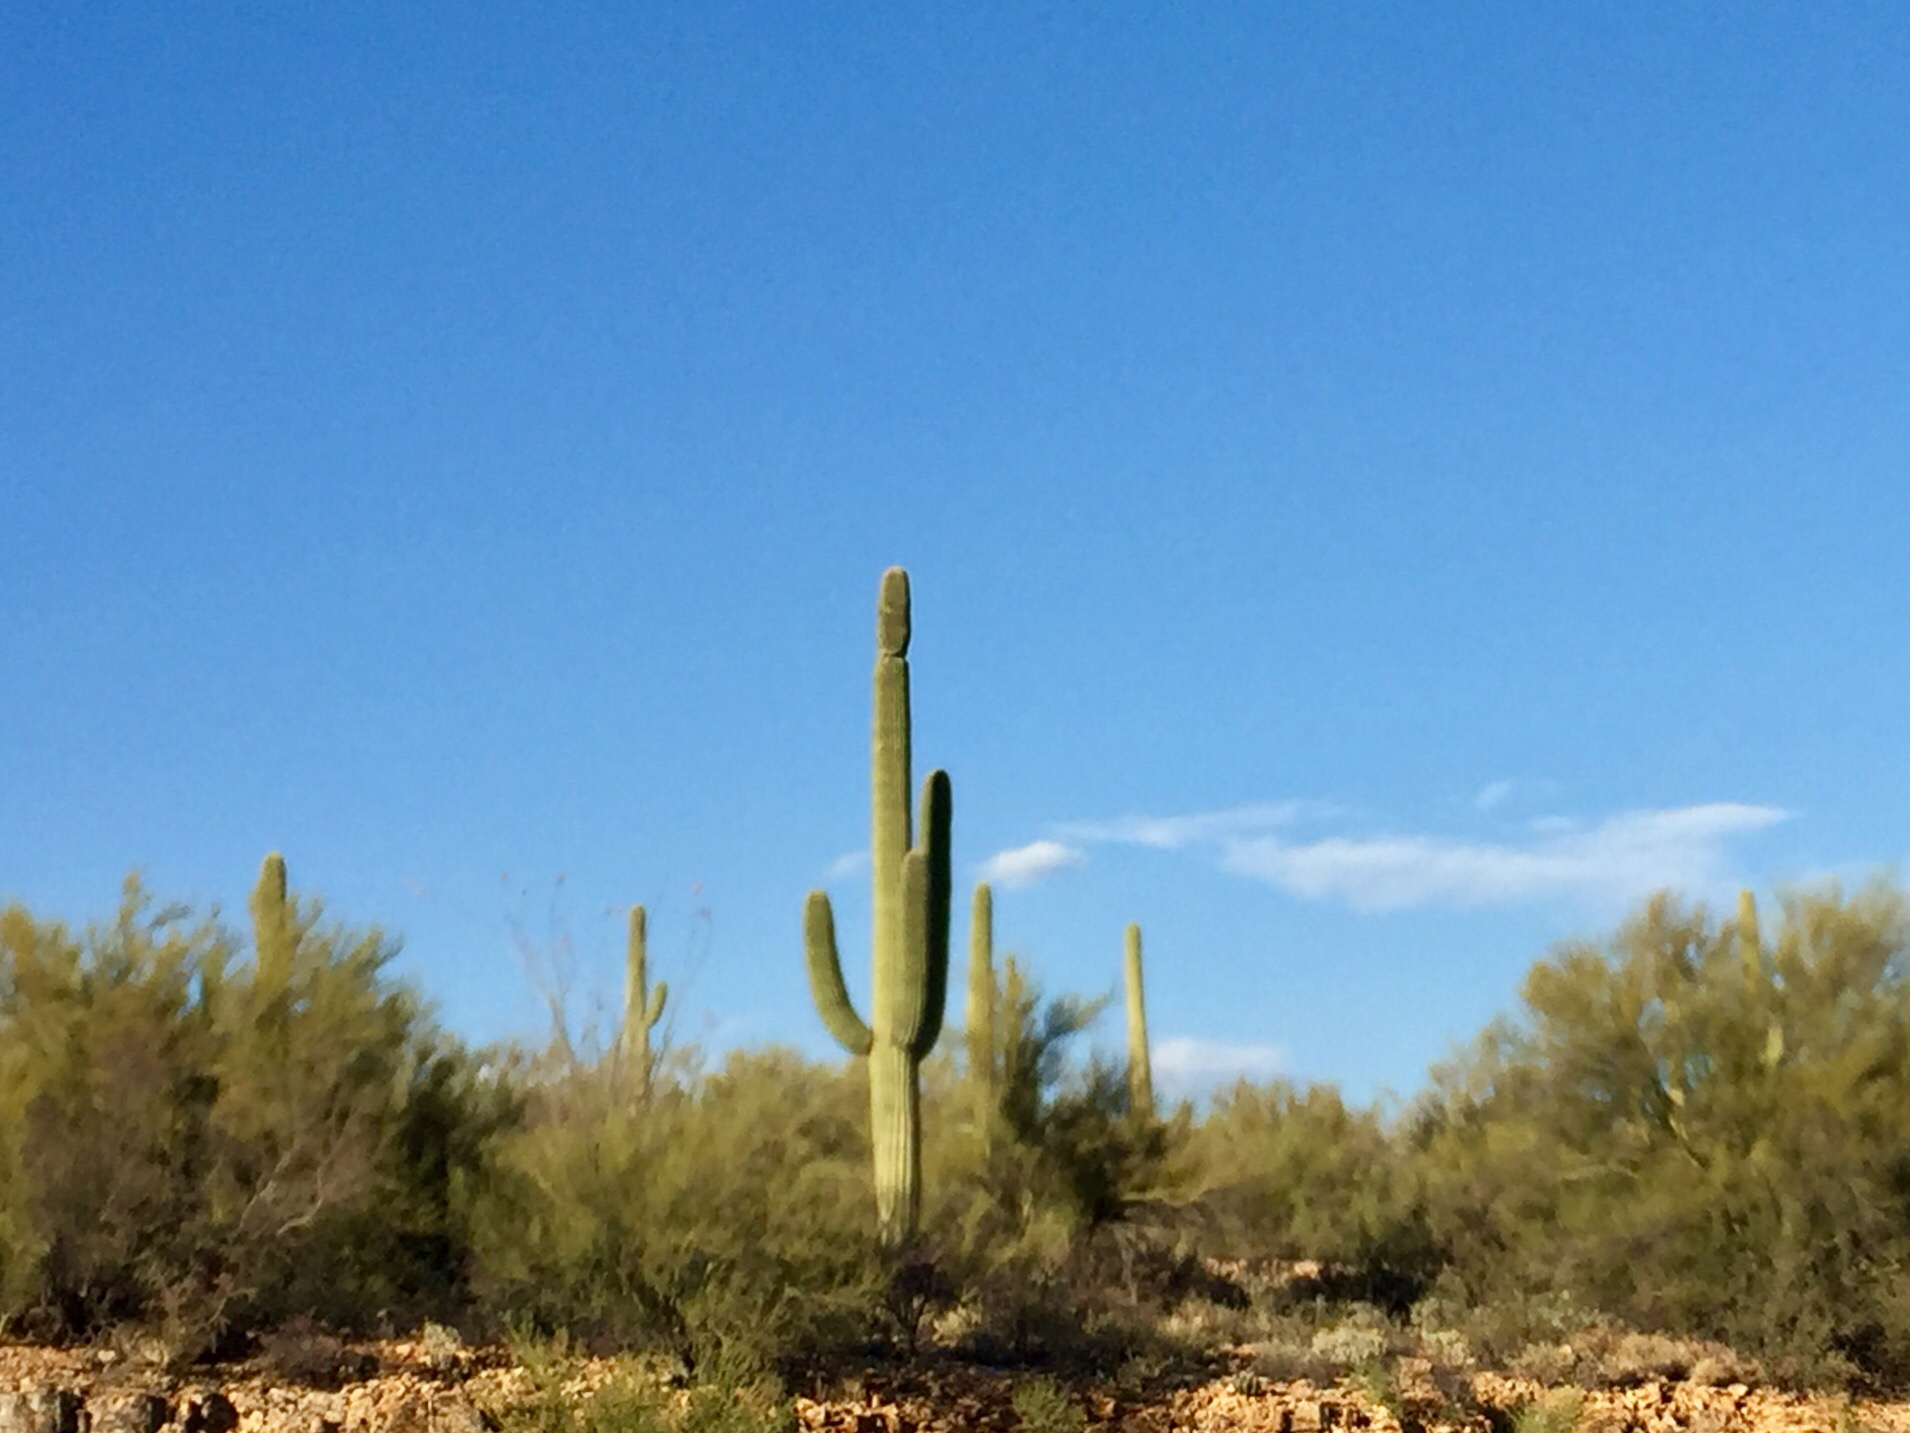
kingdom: Plantae
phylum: Tracheophyta
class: Magnoliopsida
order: Caryophyllales
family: Cactaceae
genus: Carnegiea
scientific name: Carnegiea gigantea
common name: Saguaro
